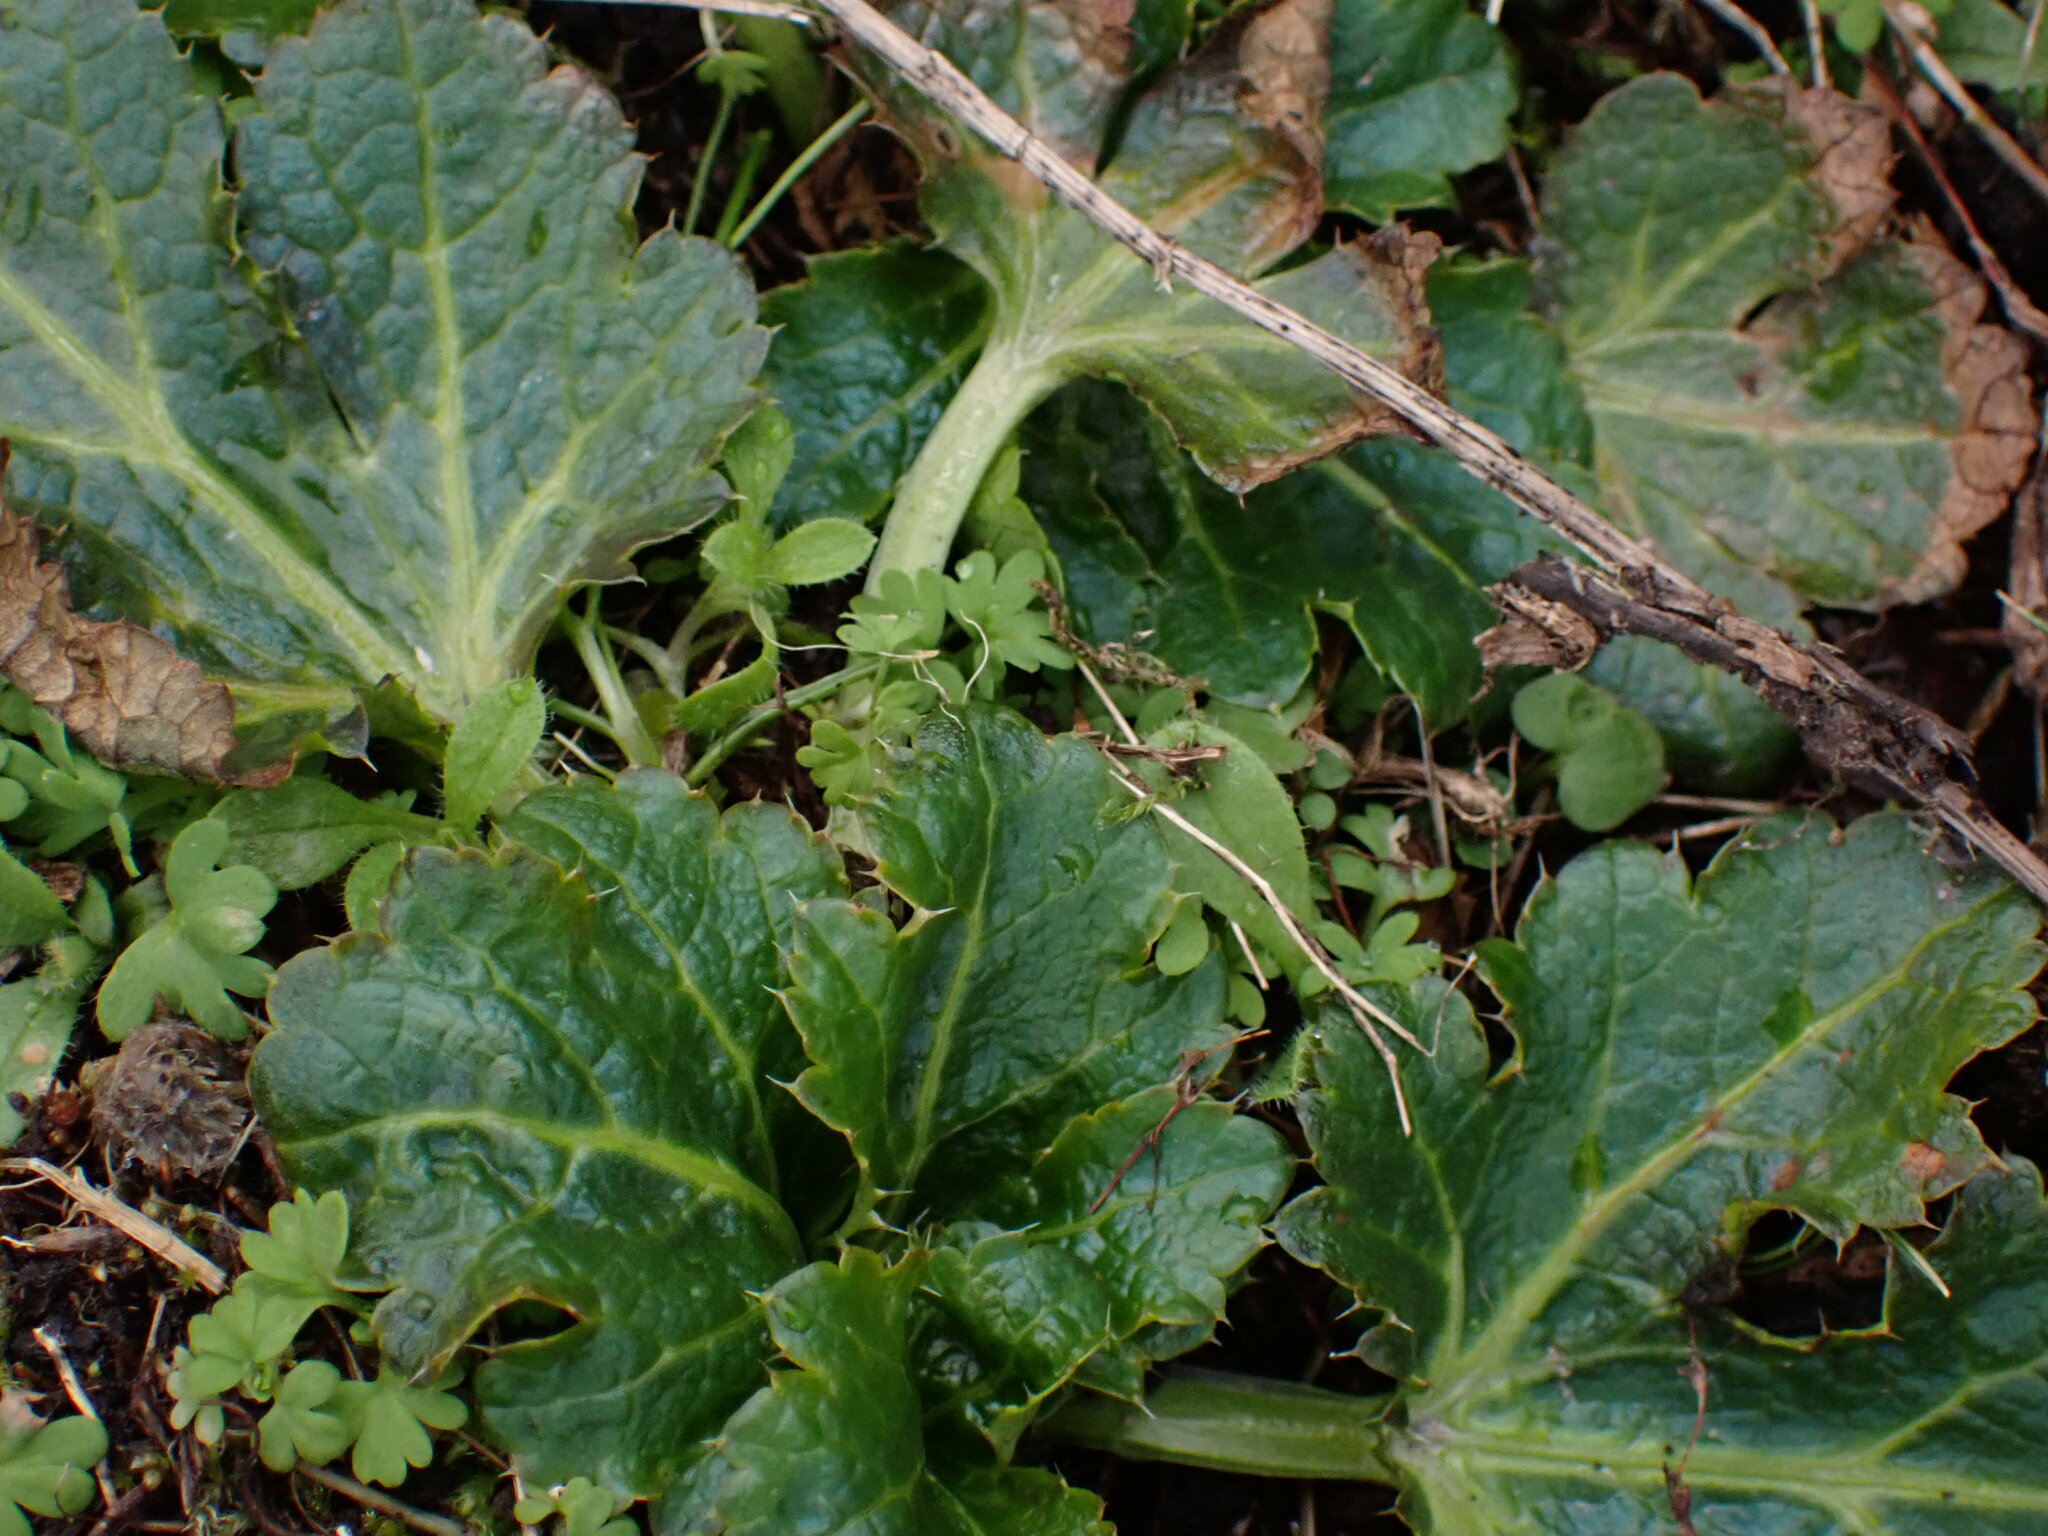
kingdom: Plantae
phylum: Tracheophyta
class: Magnoliopsida
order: Apiales
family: Apiaceae
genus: Sanicula
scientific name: Sanicula crassicaulis
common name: Western snakeroot
